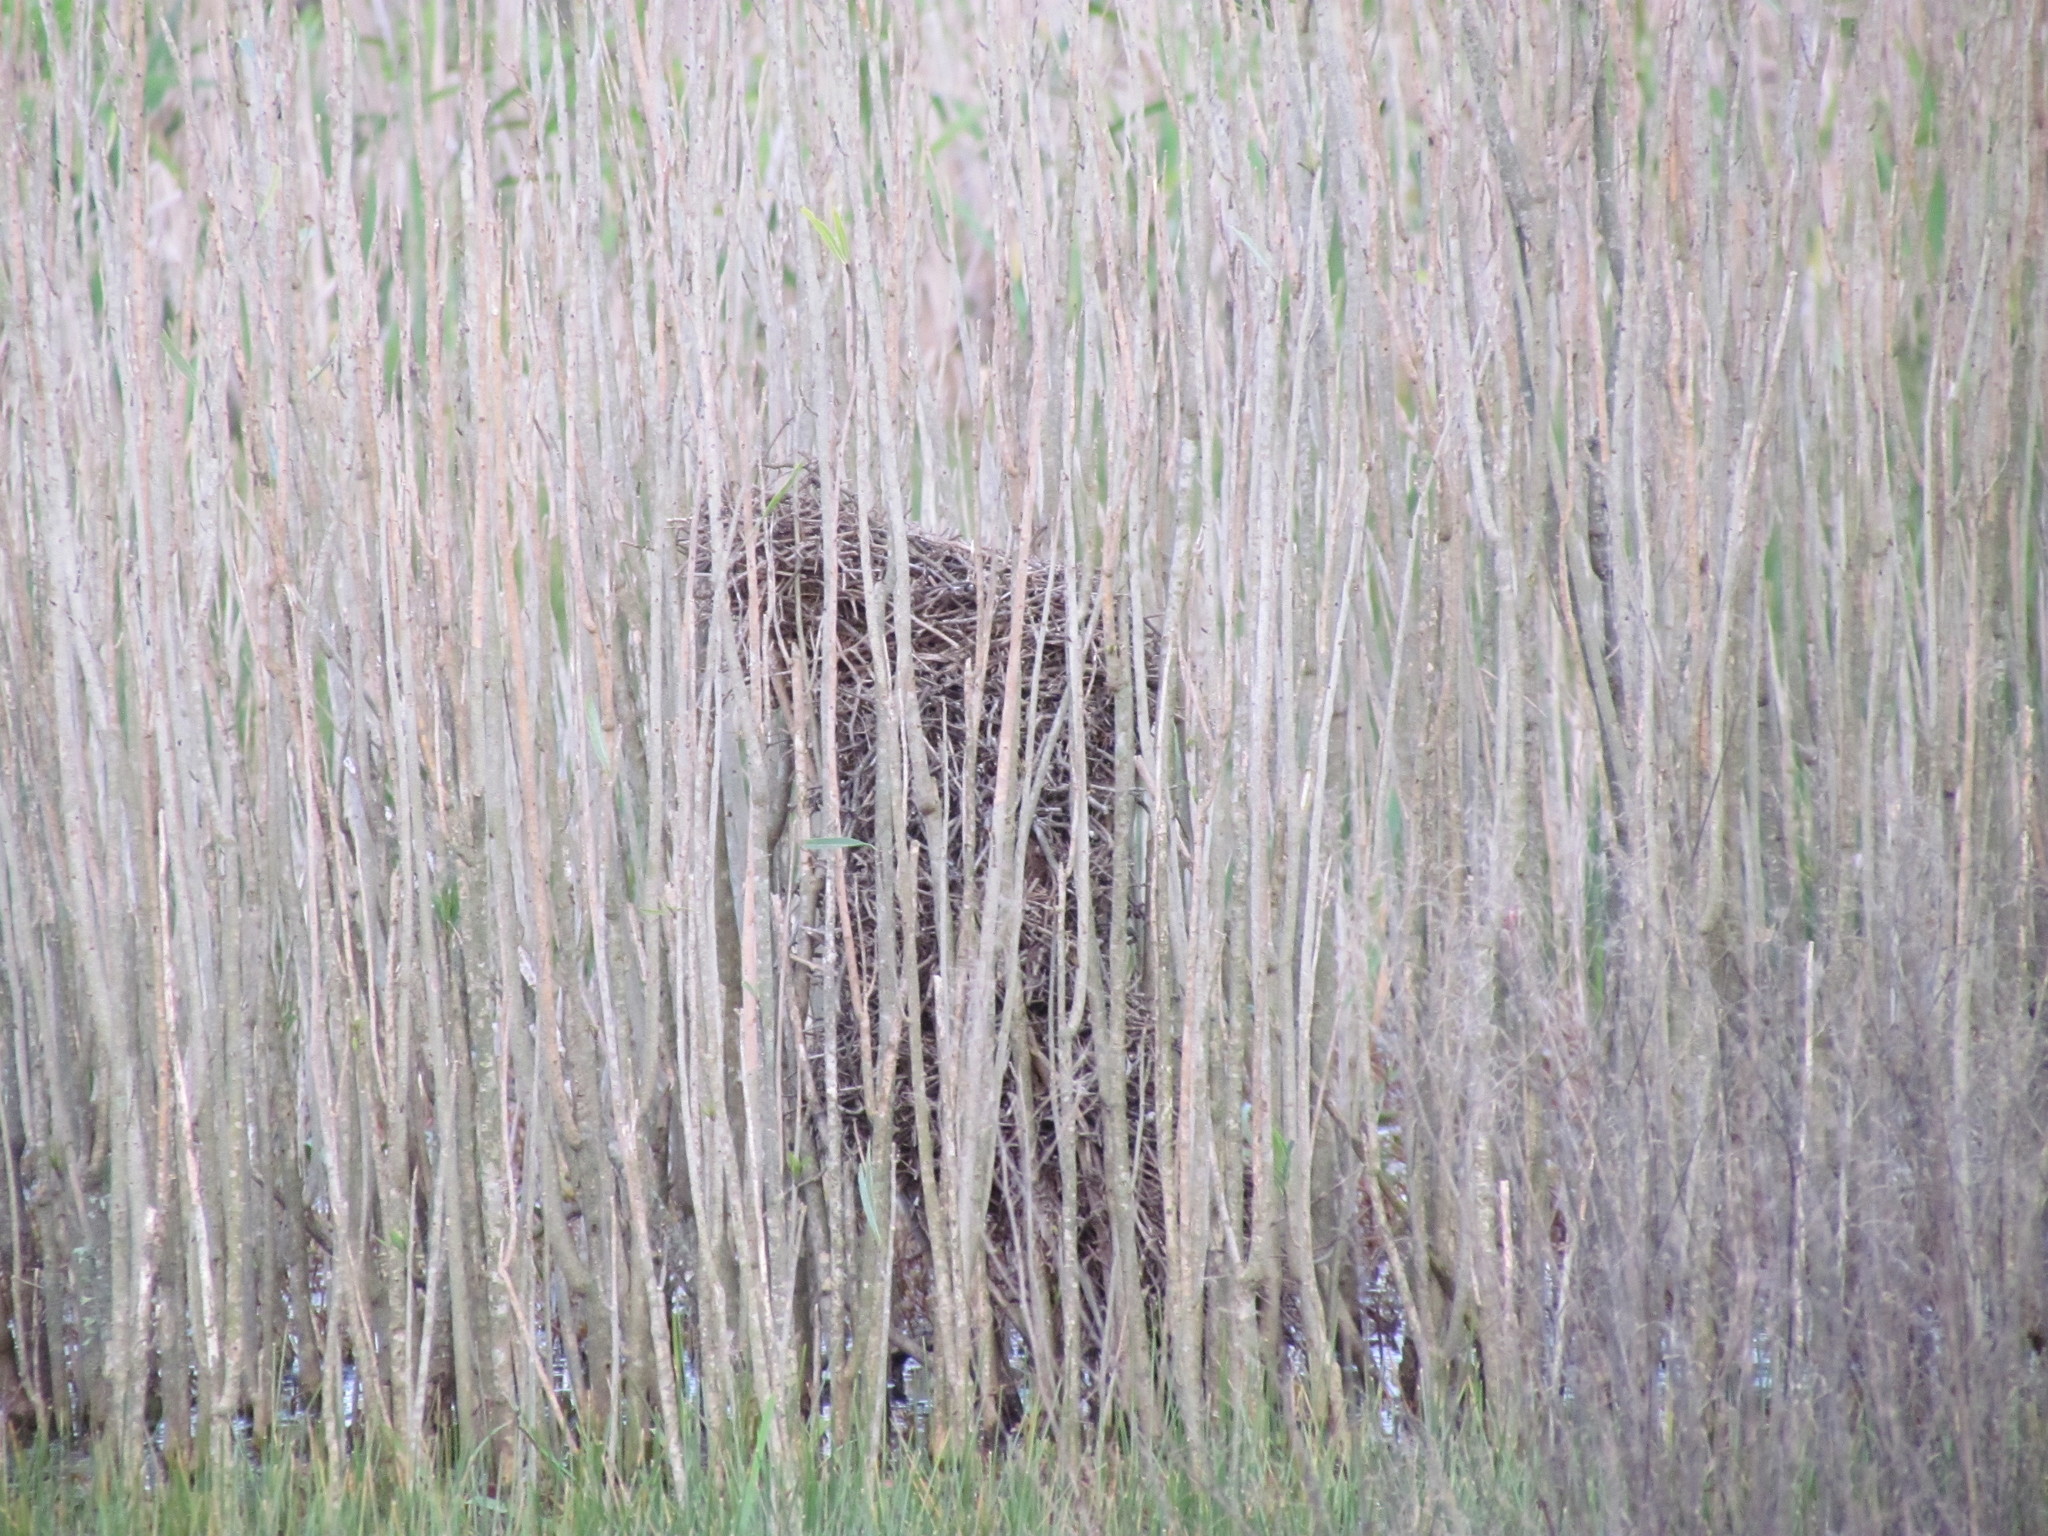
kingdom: Animalia
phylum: Chordata
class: Aves
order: Passeriformes
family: Furnariidae
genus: Phleocryptes
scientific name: Phleocryptes melanops
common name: Wren-like rushbird
